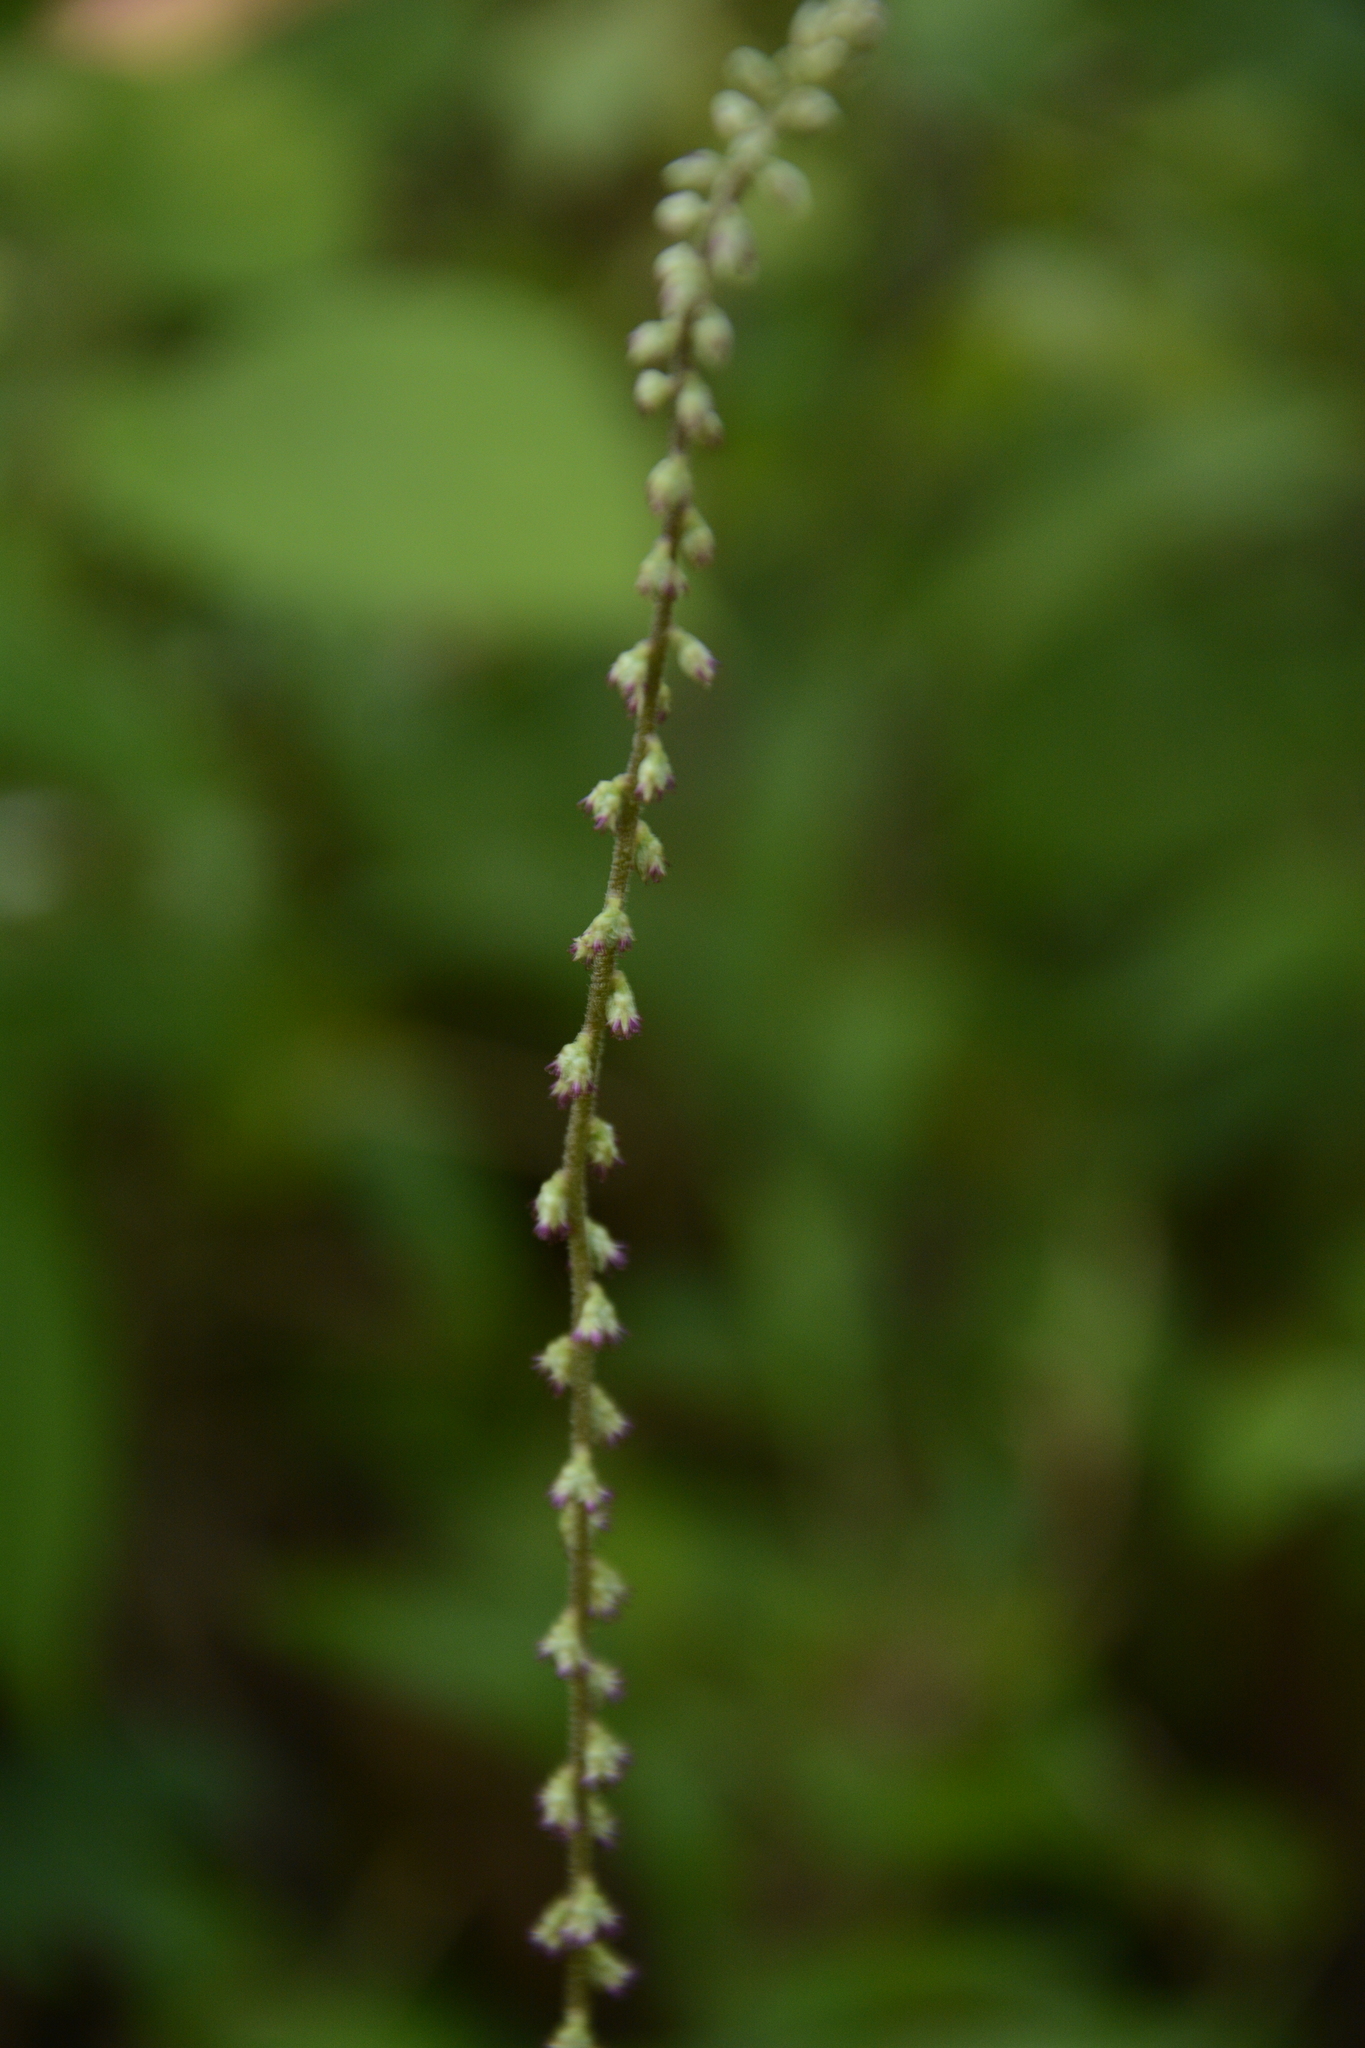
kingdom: Plantae
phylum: Tracheophyta
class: Magnoliopsida
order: Caryophyllales
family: Amaranthaceae
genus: Cyathula
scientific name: Cyathula prostrata
